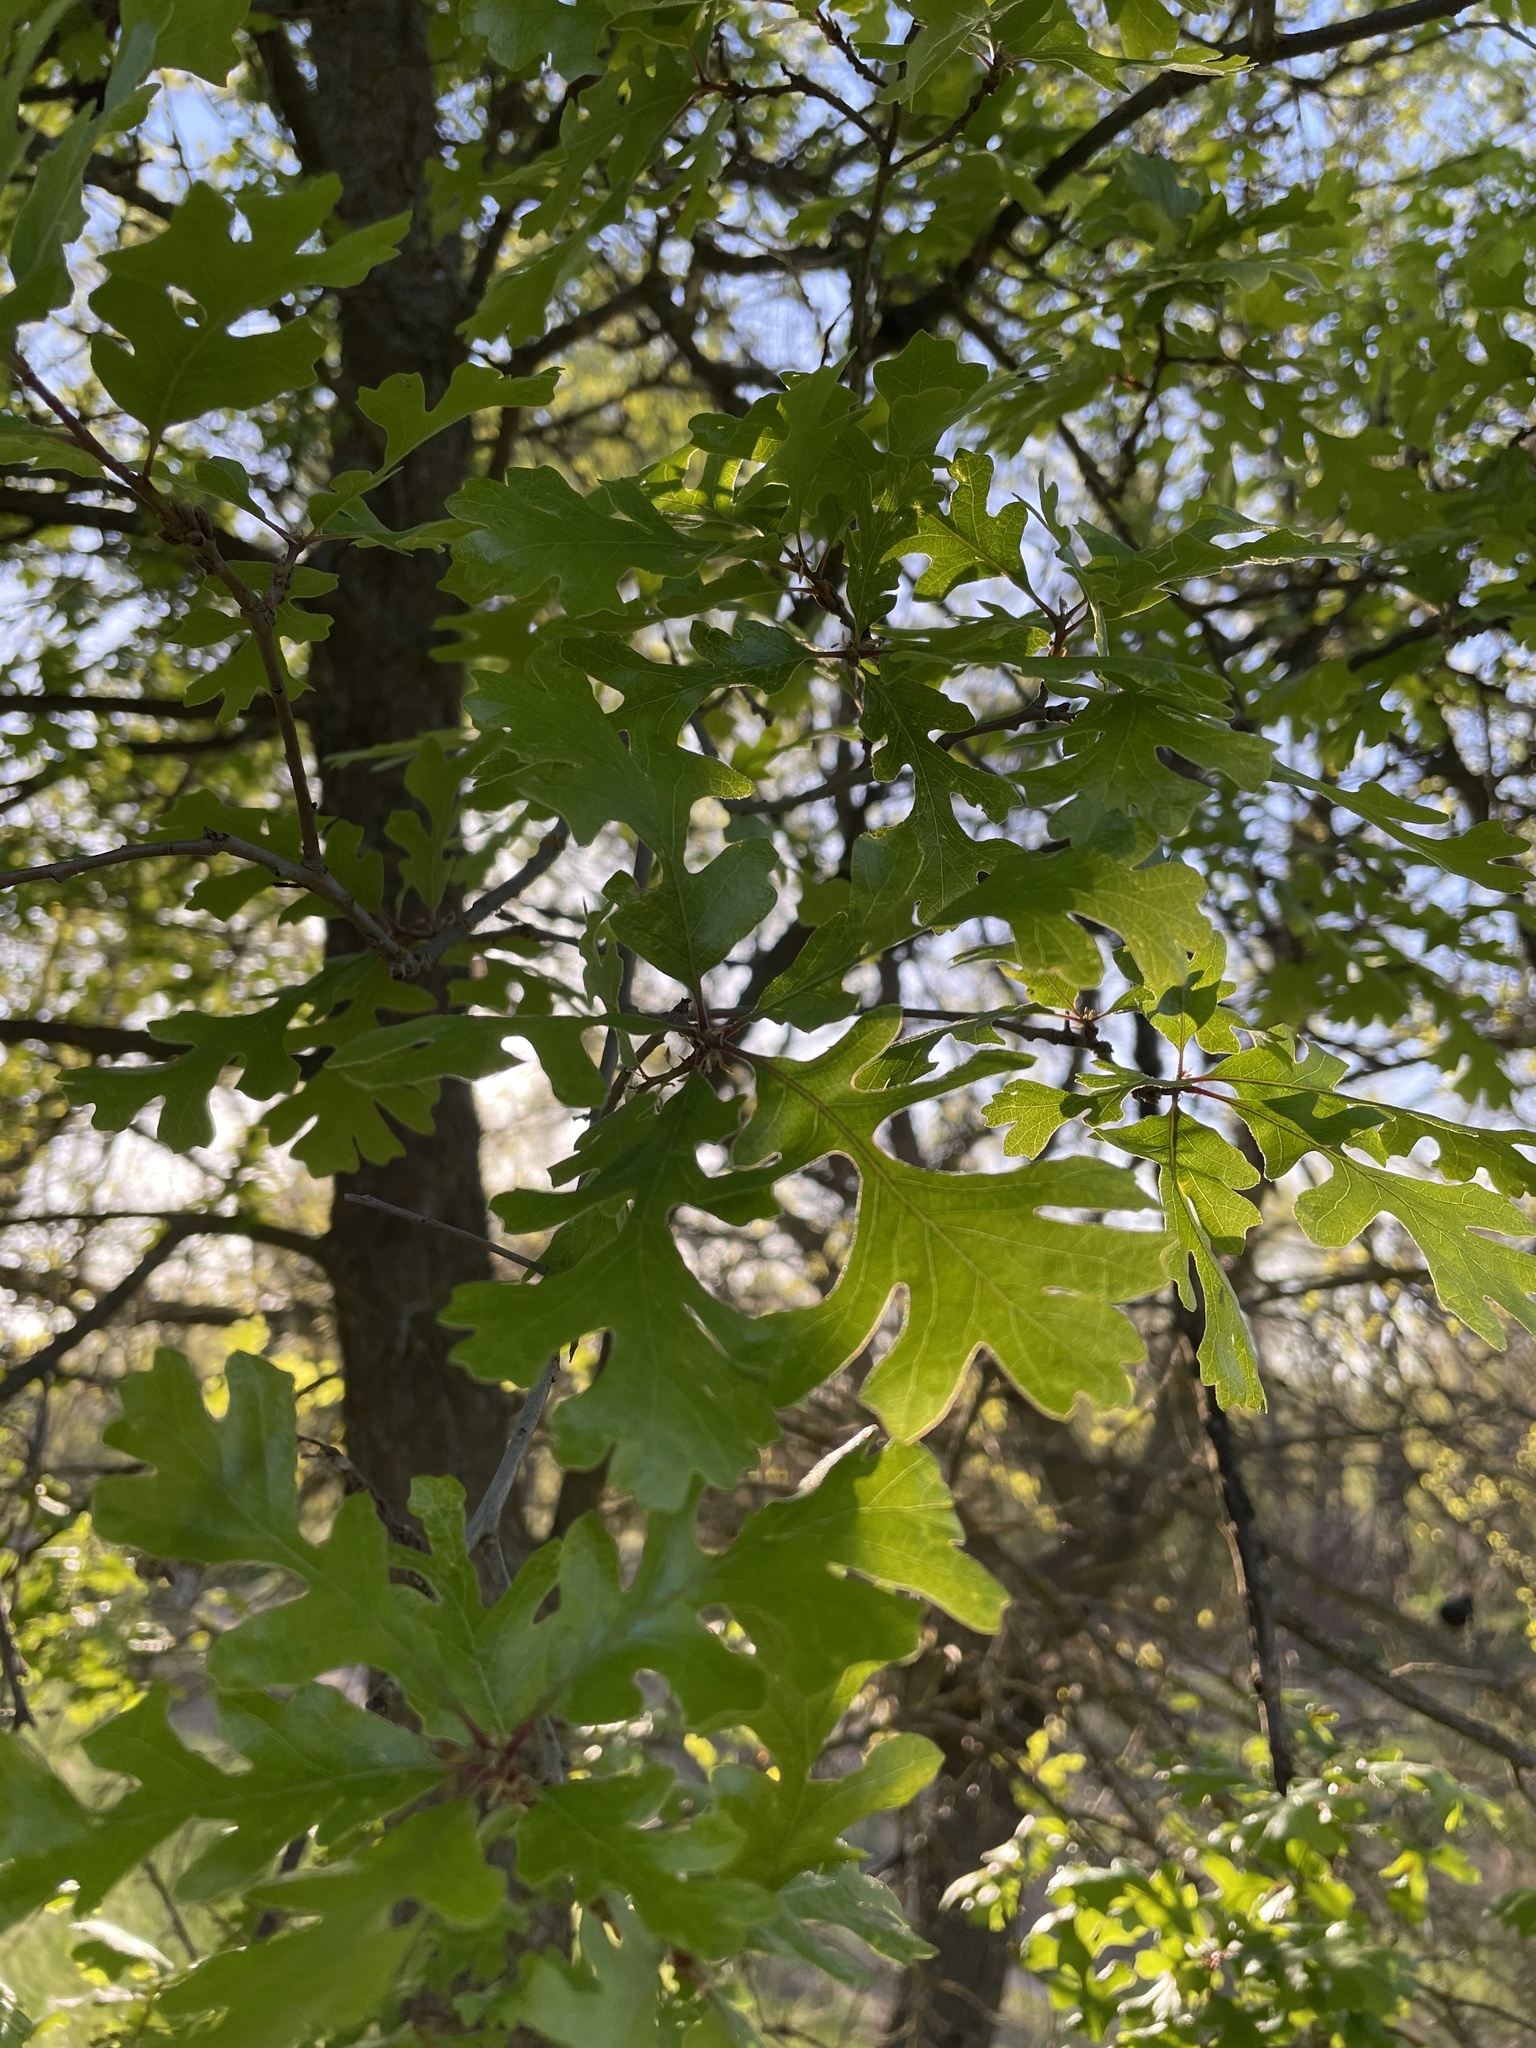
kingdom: Plantae
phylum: Tracheophyta
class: Magnoliopsida
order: Fagales
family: Fagaceae
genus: Quercus
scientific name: Quercus lobata
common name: Valley oak
